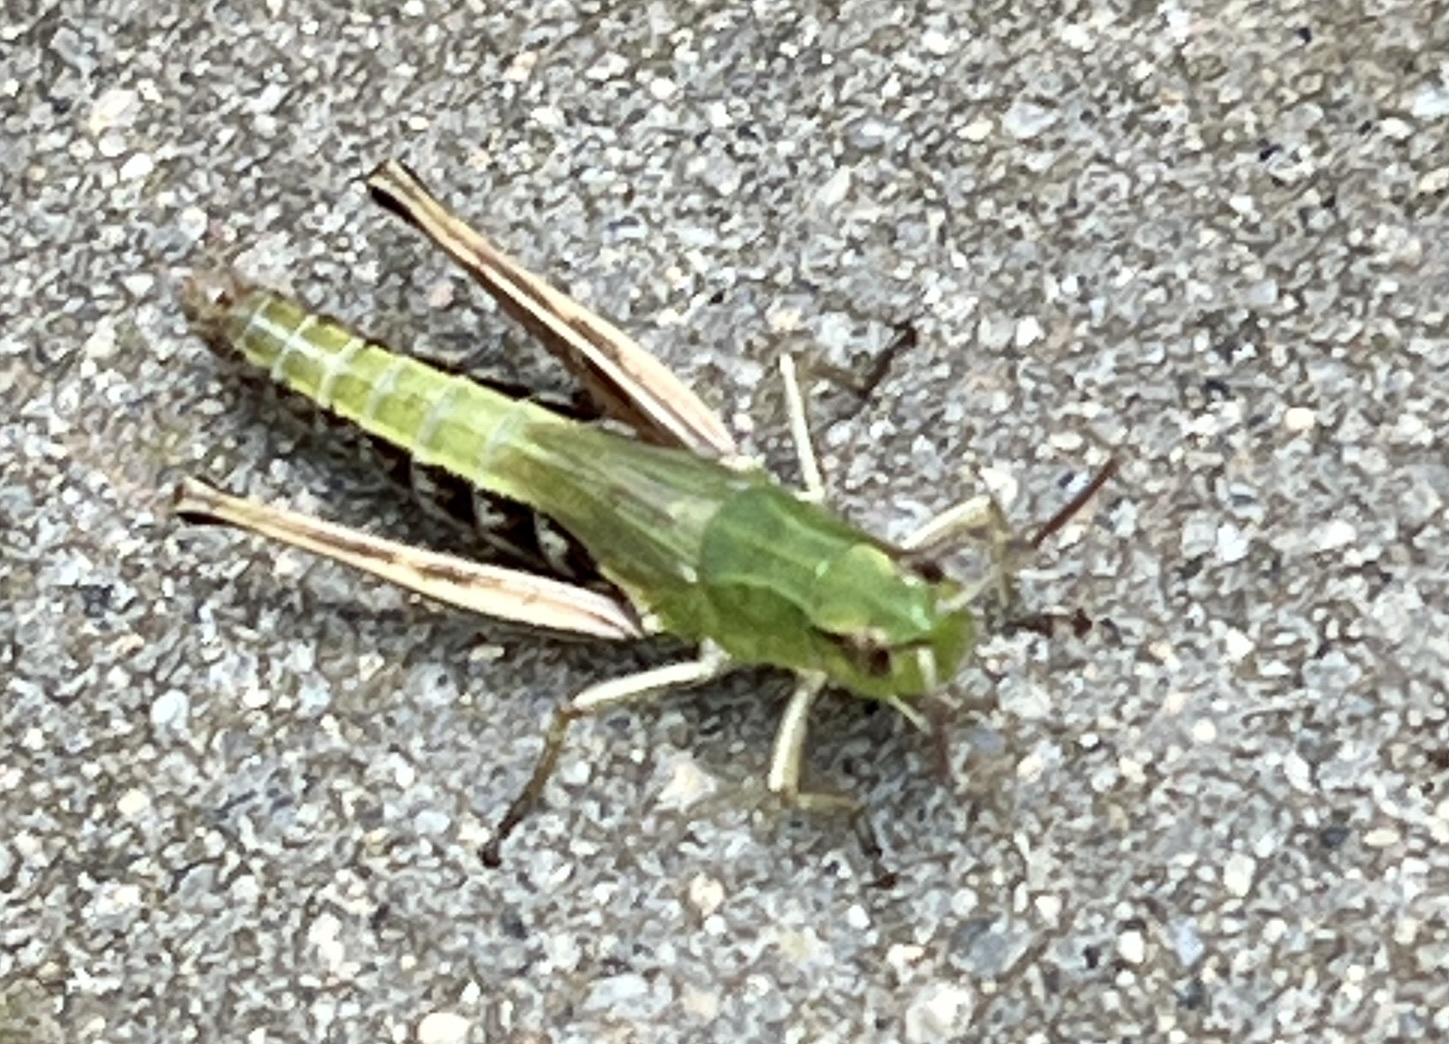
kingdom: Animalia
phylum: Arthropoda
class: Insecta
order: Orthoptera
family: Acrididae
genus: Pseudochorthippus
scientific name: Pseudochorthippus parallelus
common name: Meadow grasshopper
